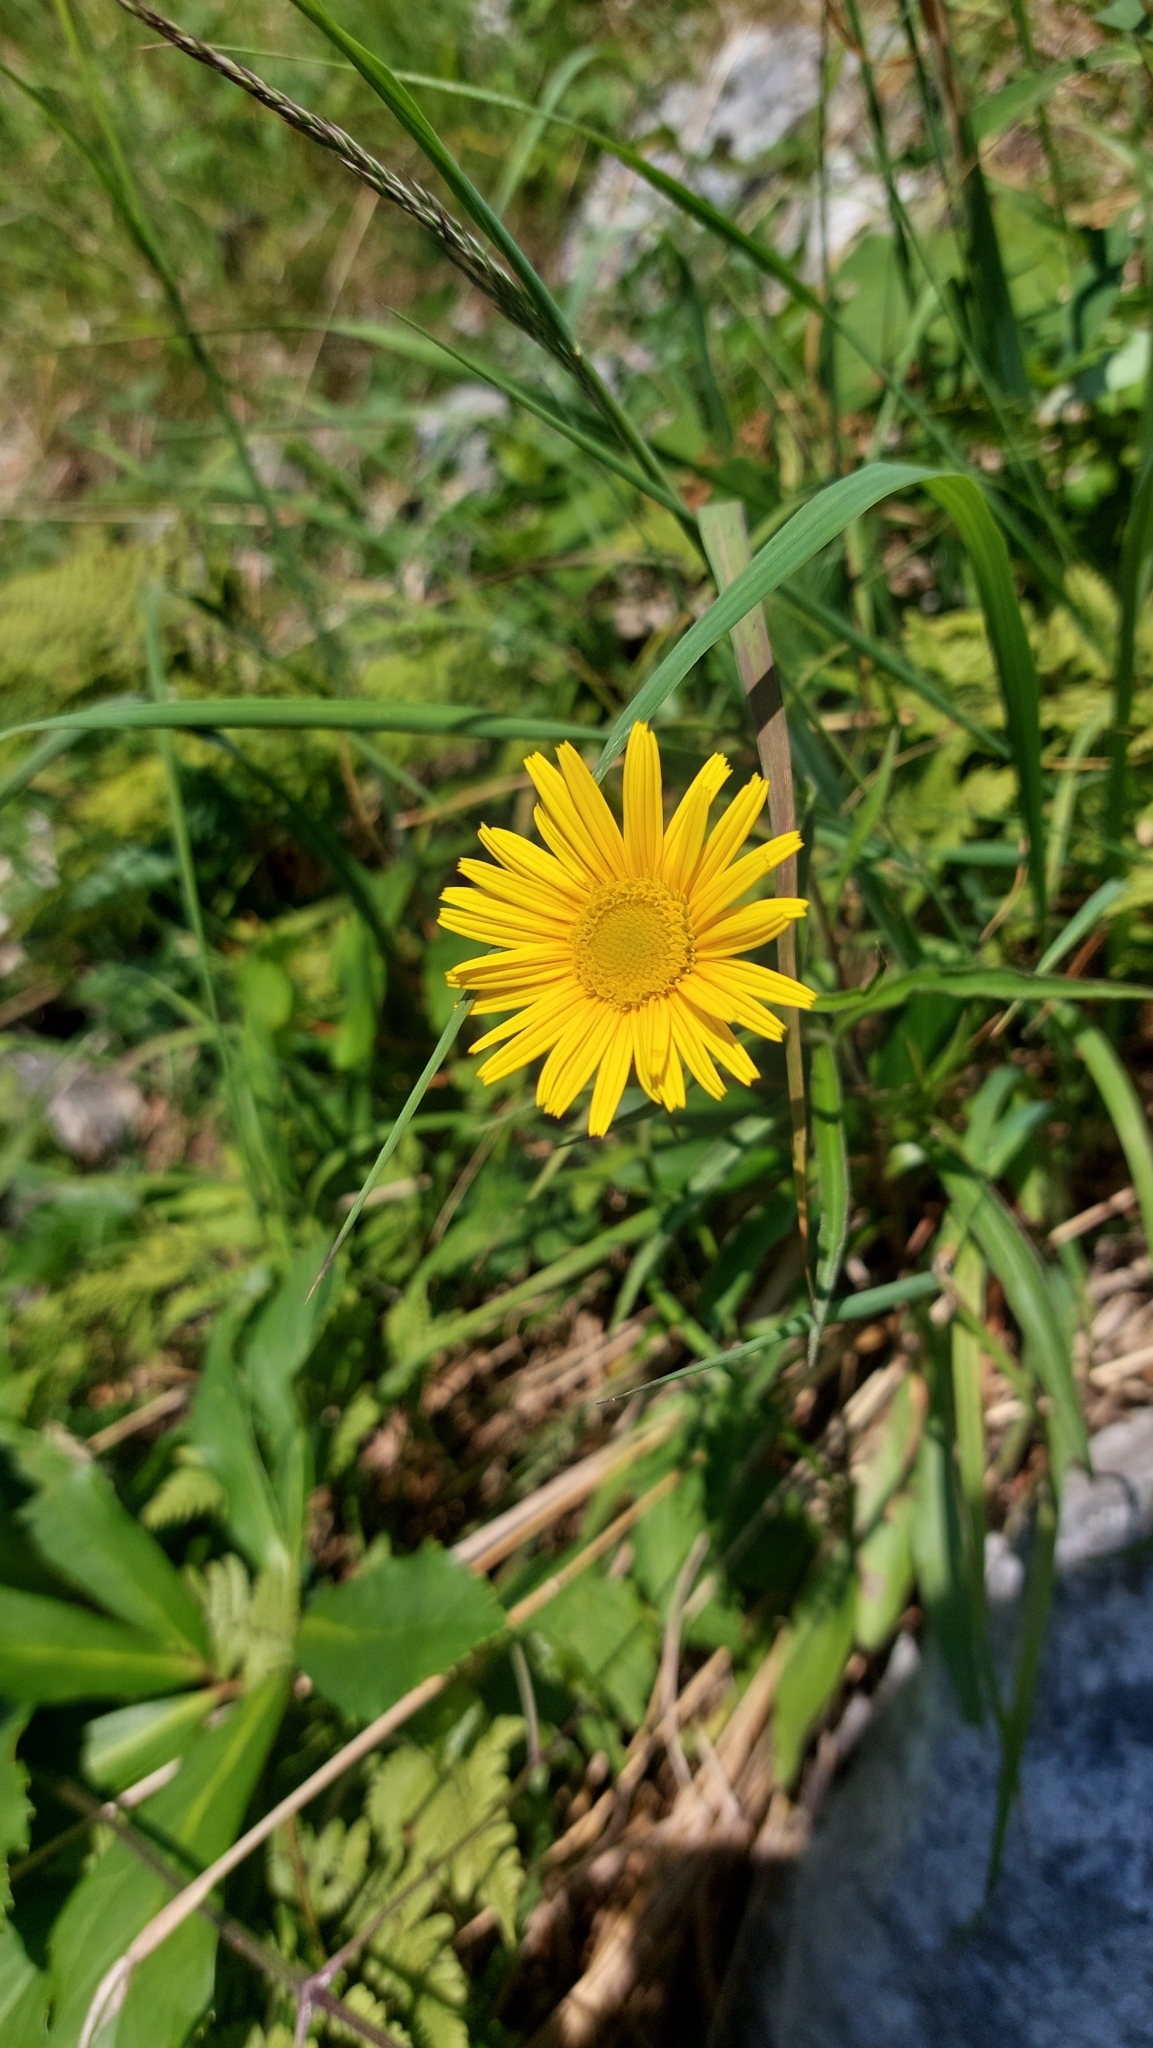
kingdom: Plantae
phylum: Tracheophyta
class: Magnoliopsida
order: Asterales
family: Asteraceae
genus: Buphthalmum
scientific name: Buphthalmum salicifolium
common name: Willow-leaved yellow-oxeye
